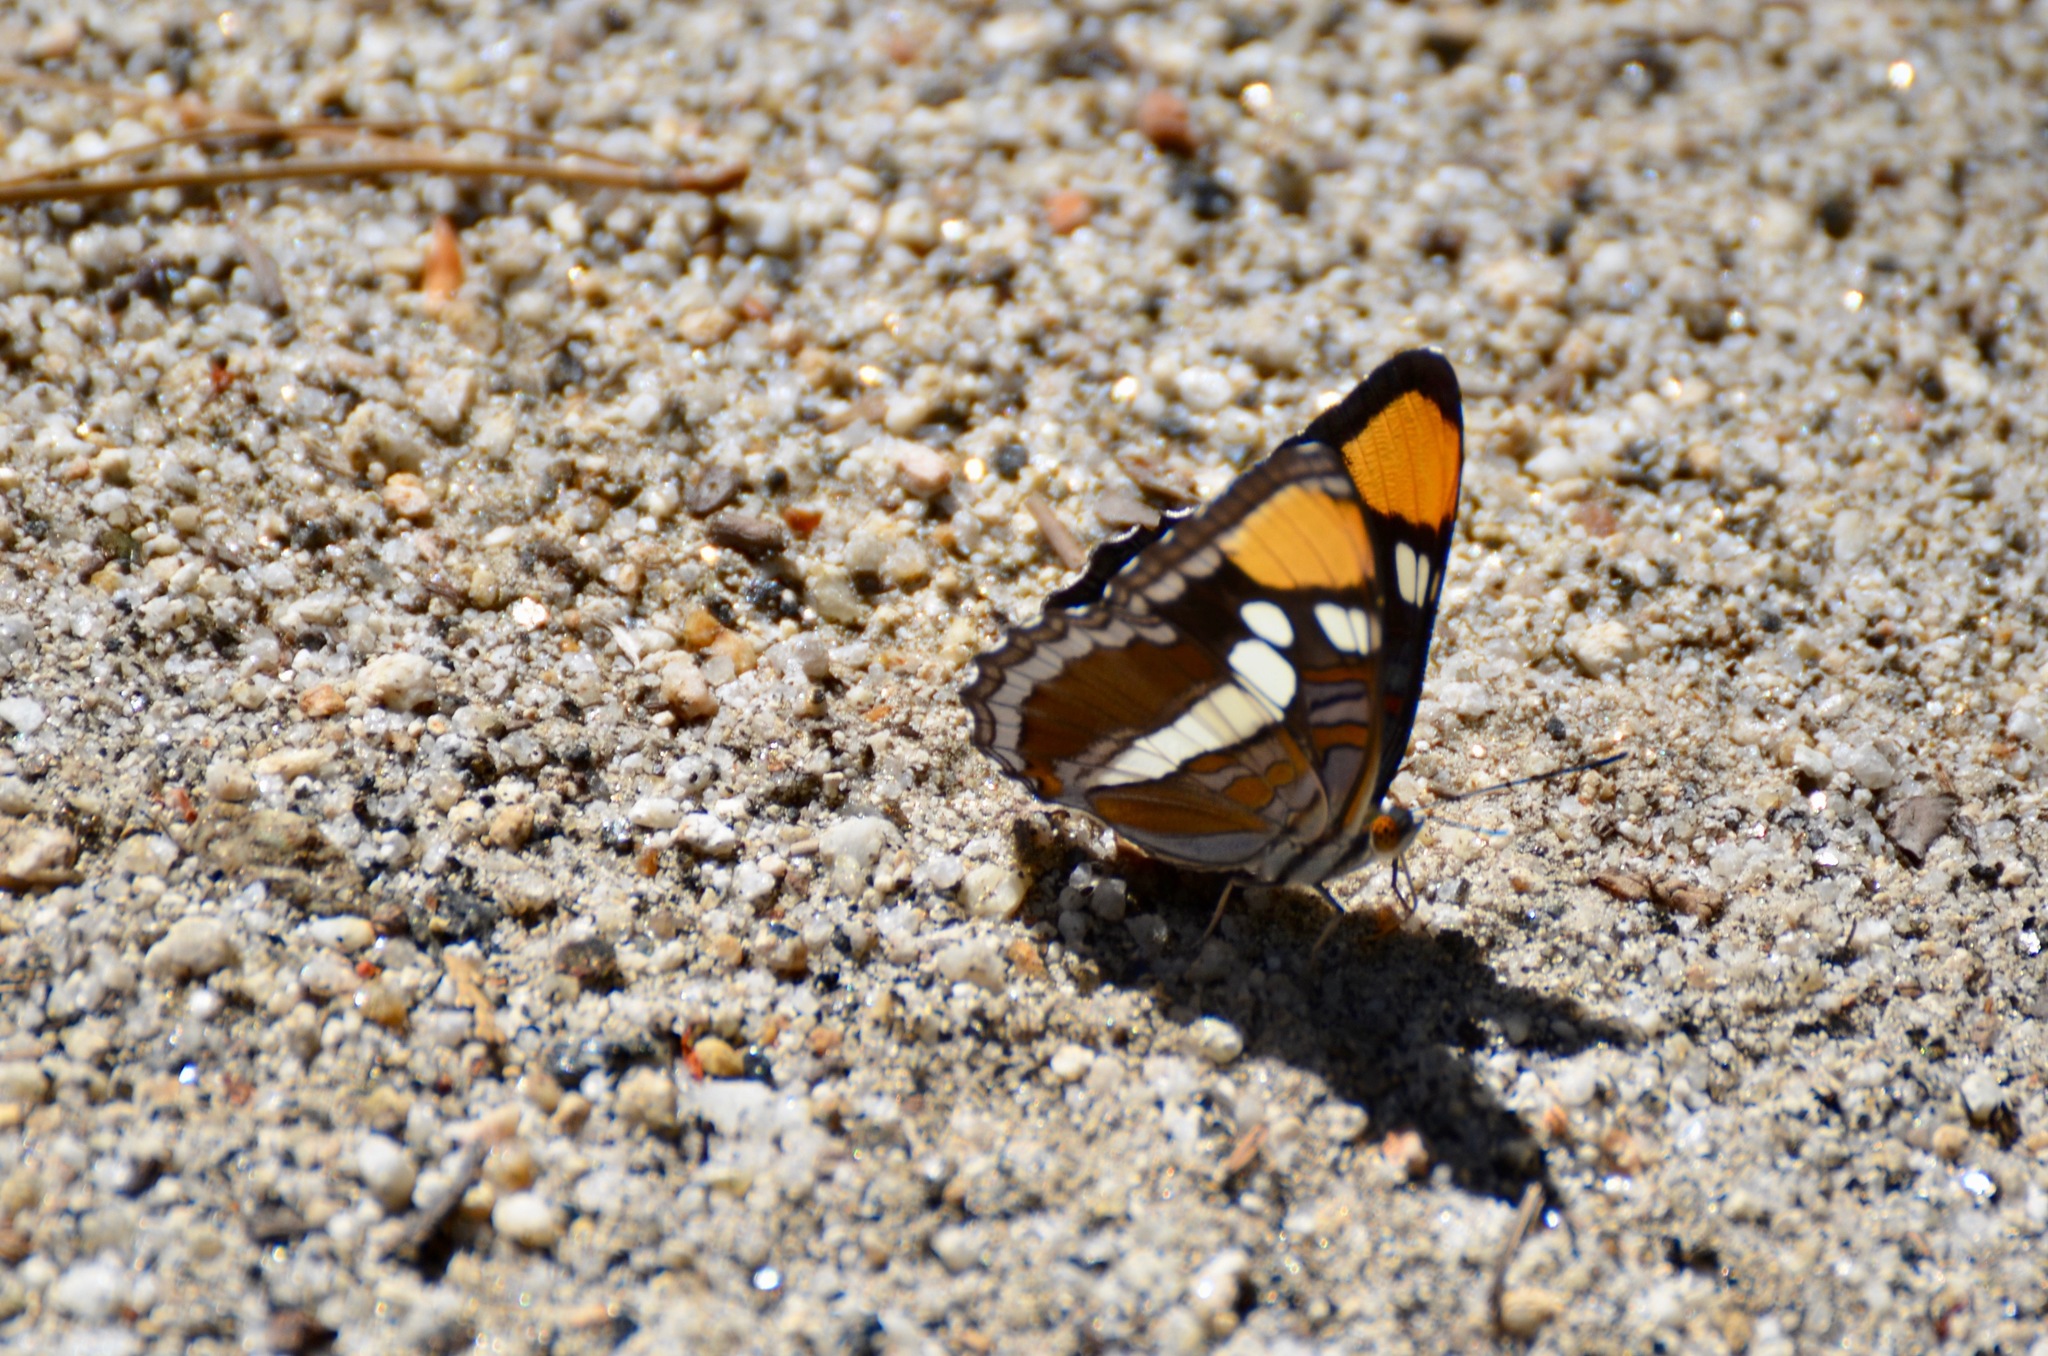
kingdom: Animalia
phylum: Arthropoda
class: Insecta
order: Lepidoptera
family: Nymphalidae
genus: Limenitis
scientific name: Limenitis bredowii
